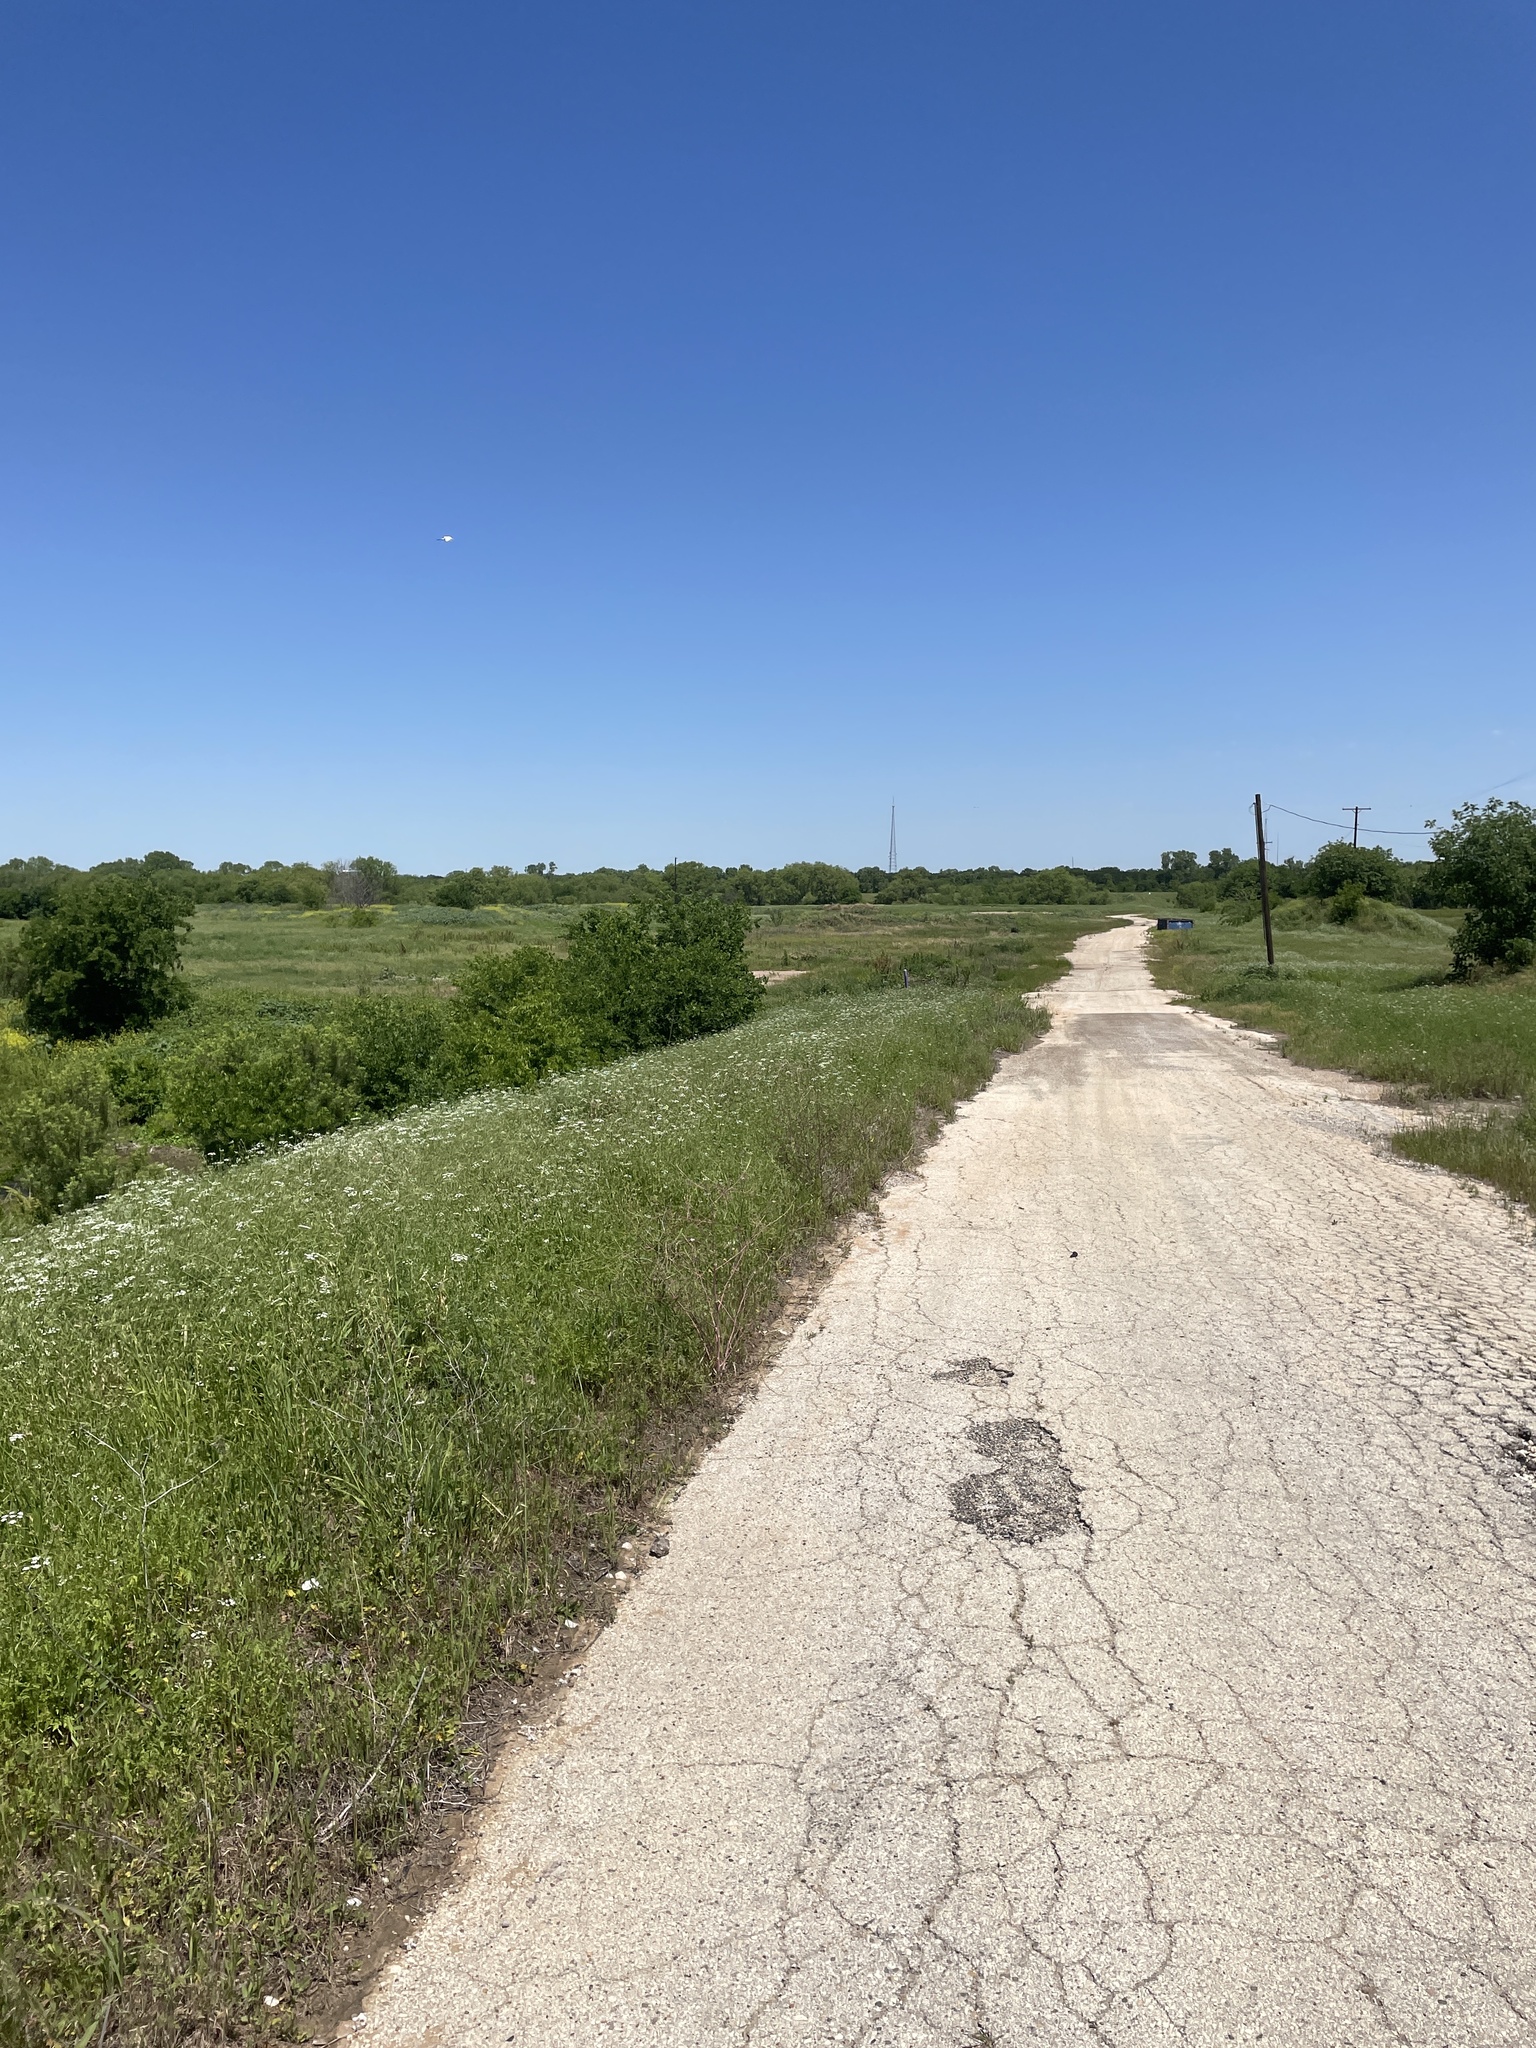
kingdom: Animalia
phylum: Chordata
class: Aves
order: Passeriformes
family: Cardinalidae
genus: Spiza
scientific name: Spiza americana
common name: Dickcissel
